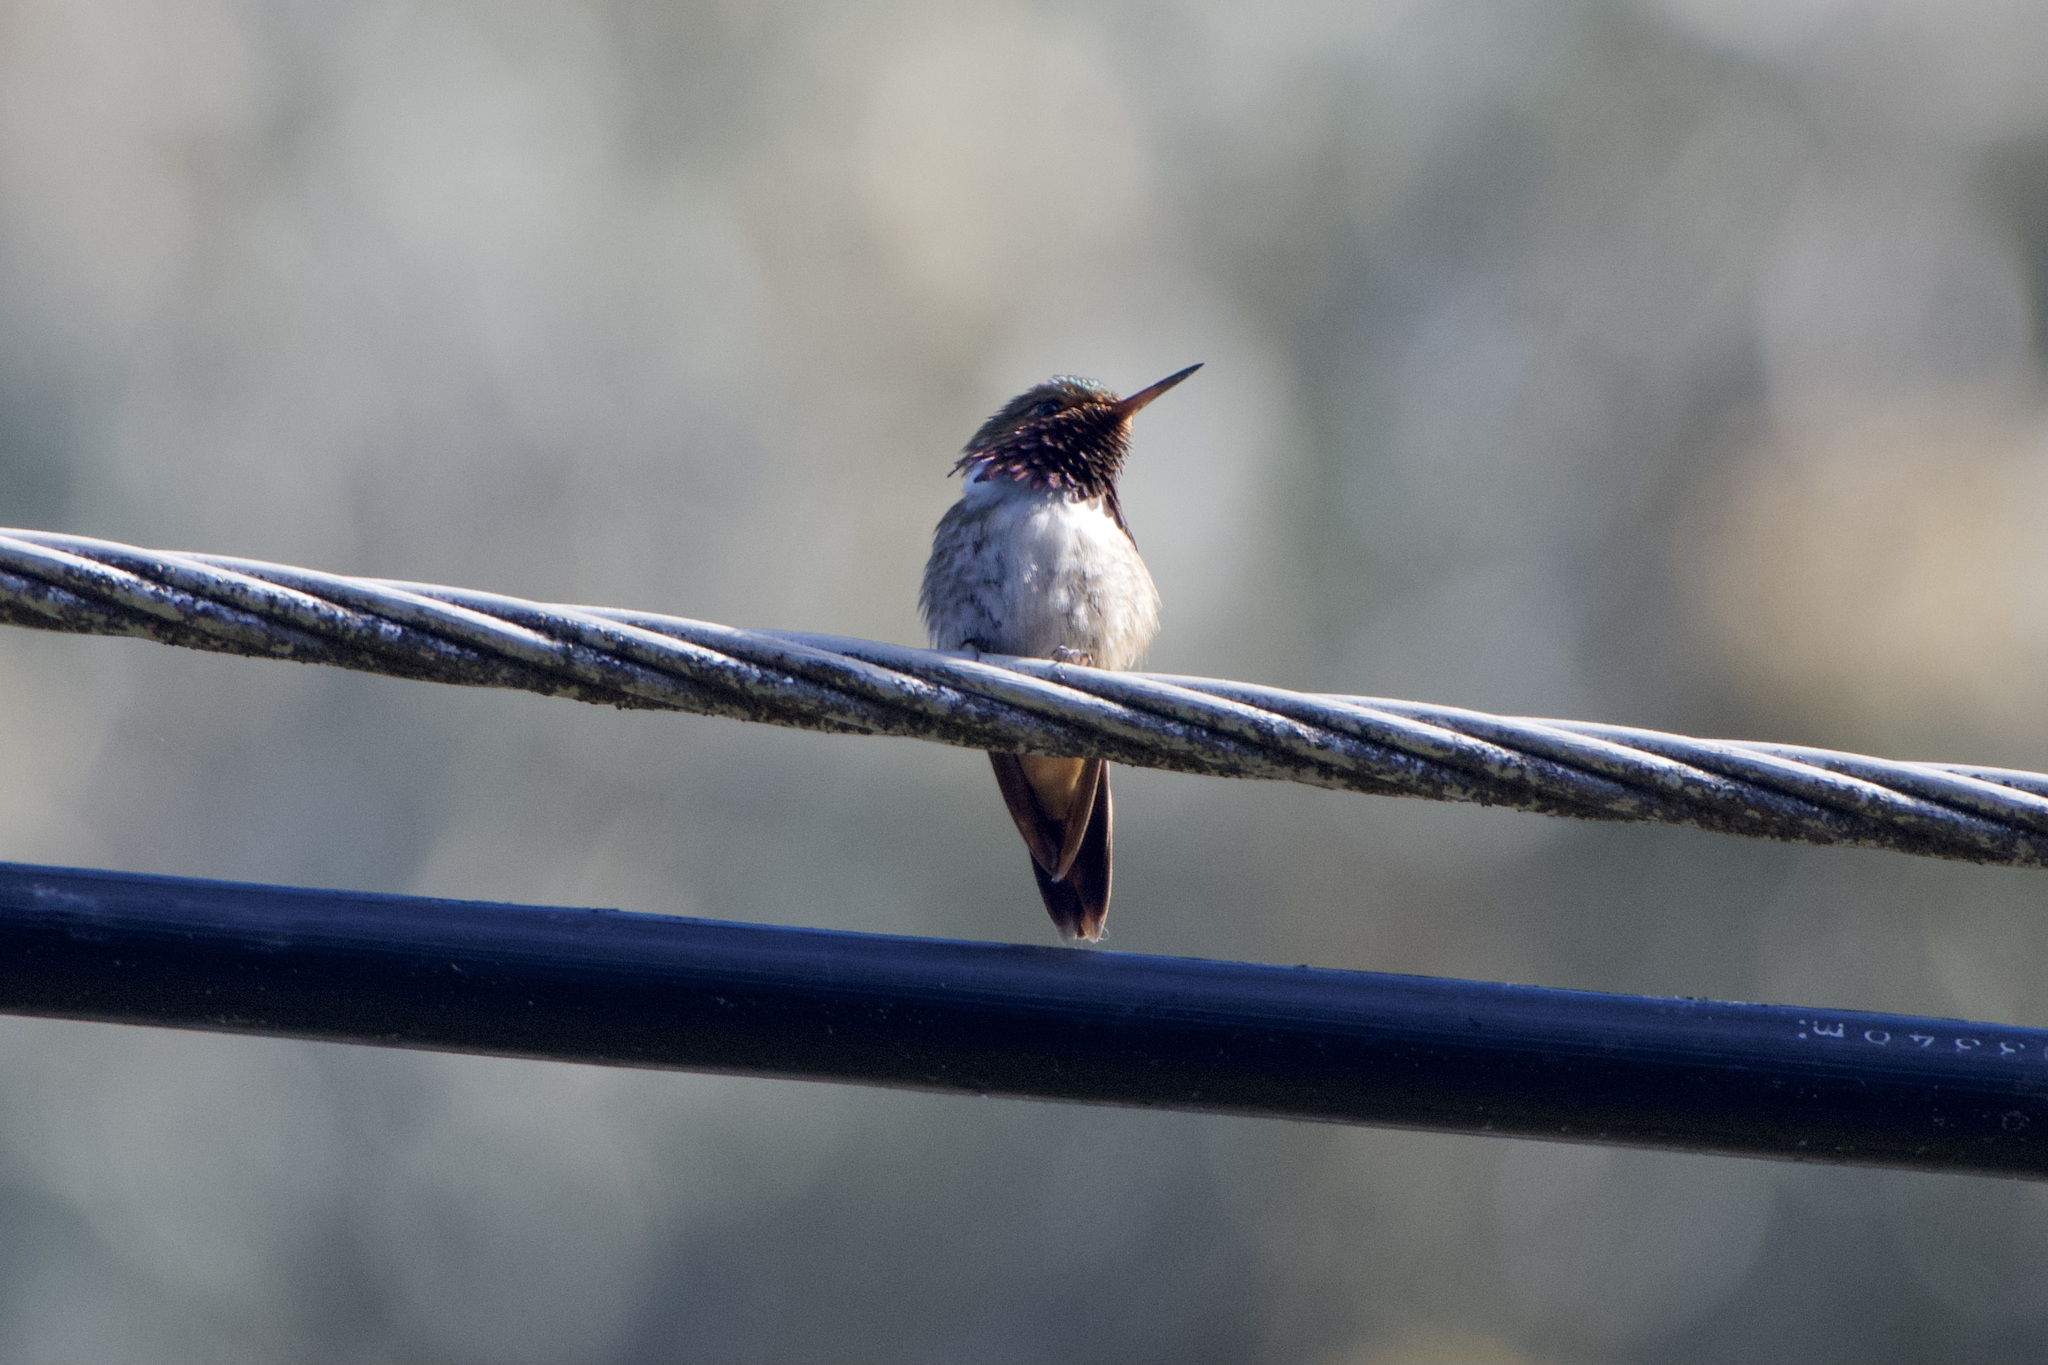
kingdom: Animalia
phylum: Chordata
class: Aves
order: Apodiformes
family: Trochilidae
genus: Selasphorus
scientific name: Selasphorus flammula
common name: Volcano hummingbird
